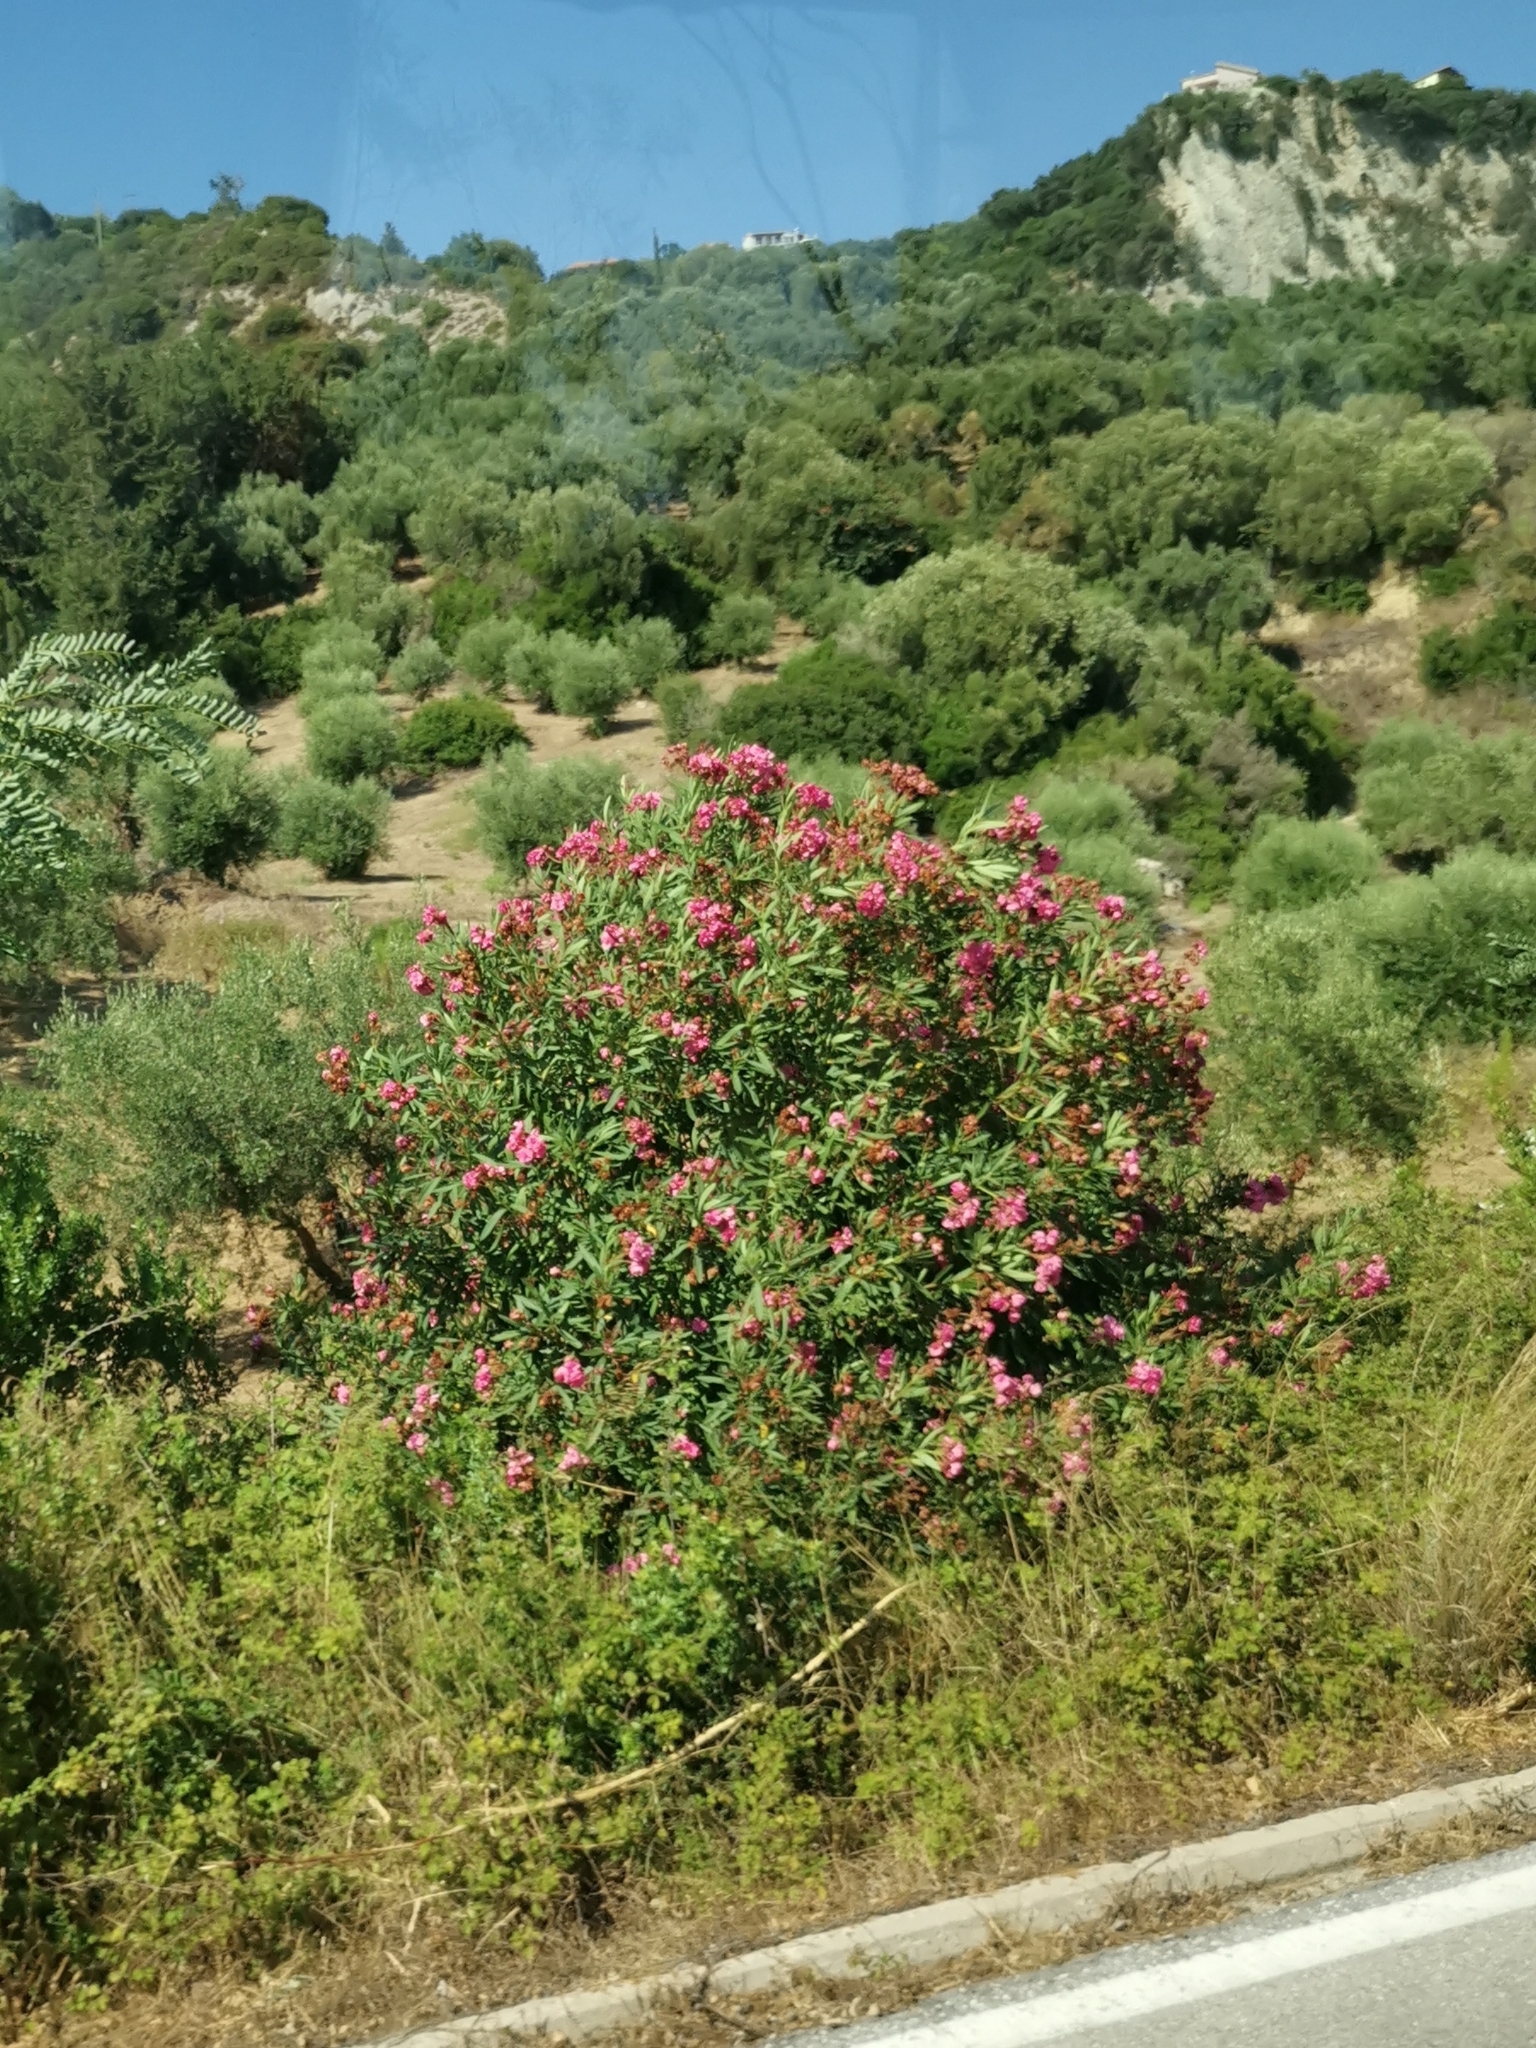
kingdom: Plantae
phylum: Tracheophyta
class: Magnoliopsida
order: Gentianales
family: Apocynaceae
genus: Nerium
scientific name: Nerium oleander
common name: Oleander
